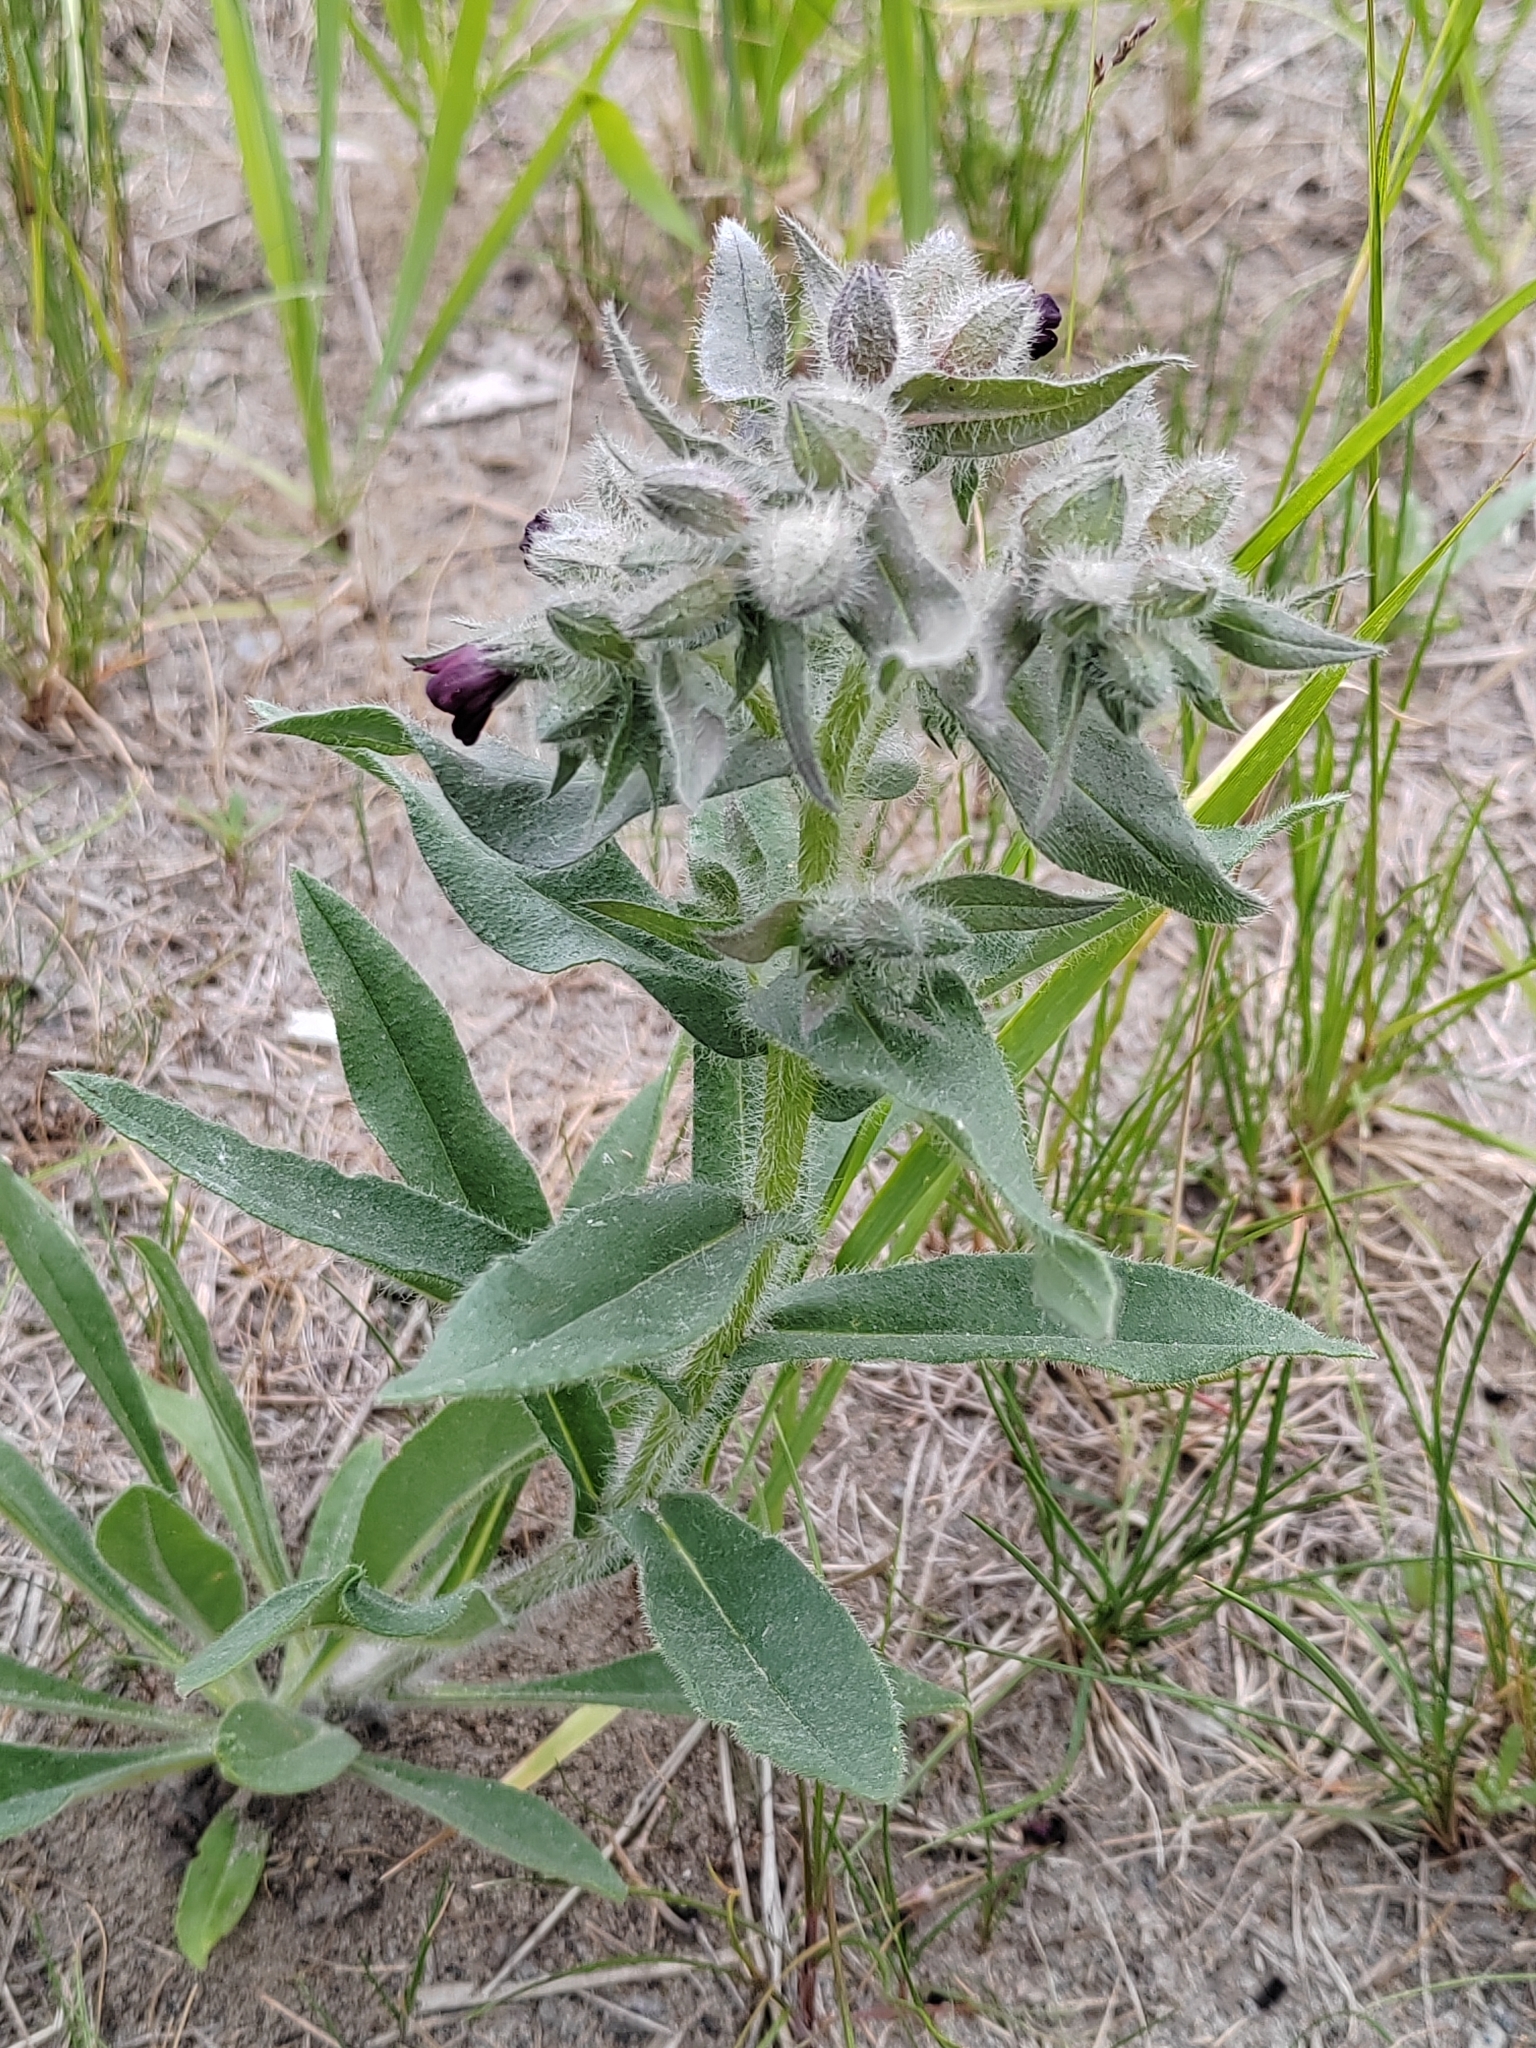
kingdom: Plantae
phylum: Tracheophyta
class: Magnoliopsida
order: Boraginales
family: Boraginaceae
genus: Nonea
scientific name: Nonea pulla
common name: Brown nonea
